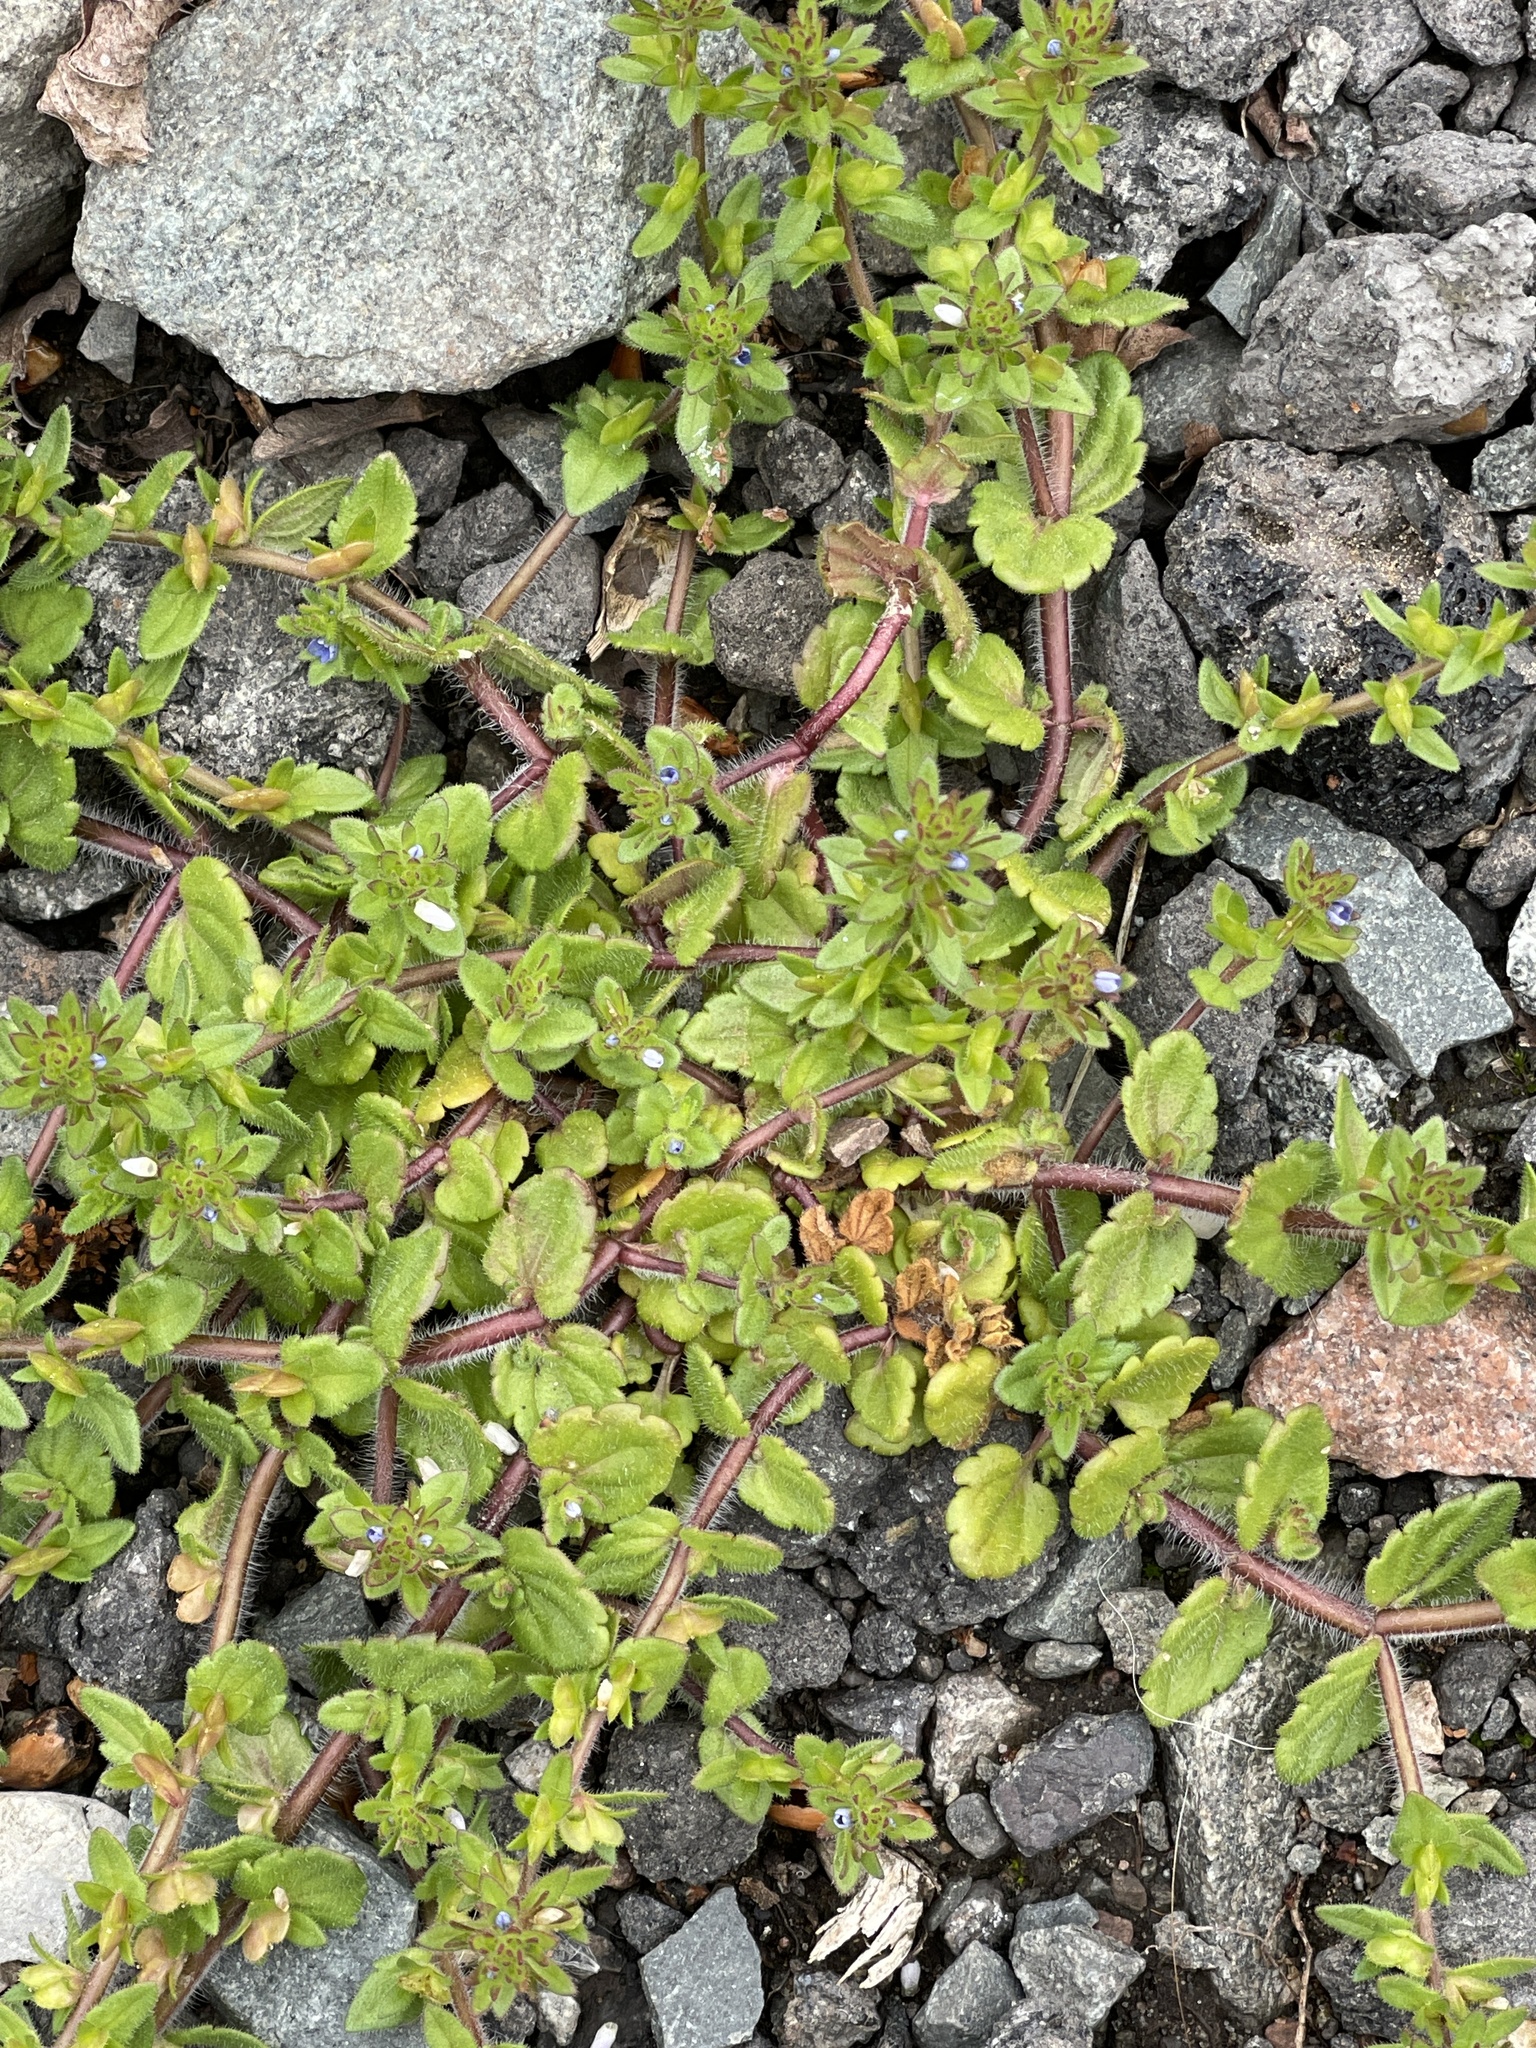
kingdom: Plantae
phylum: Tracheophyta
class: Magnoliopsida
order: Lamiales
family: Plantaginaceae
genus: Veronica
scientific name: Veronica arvensis
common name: Corn speedwell
